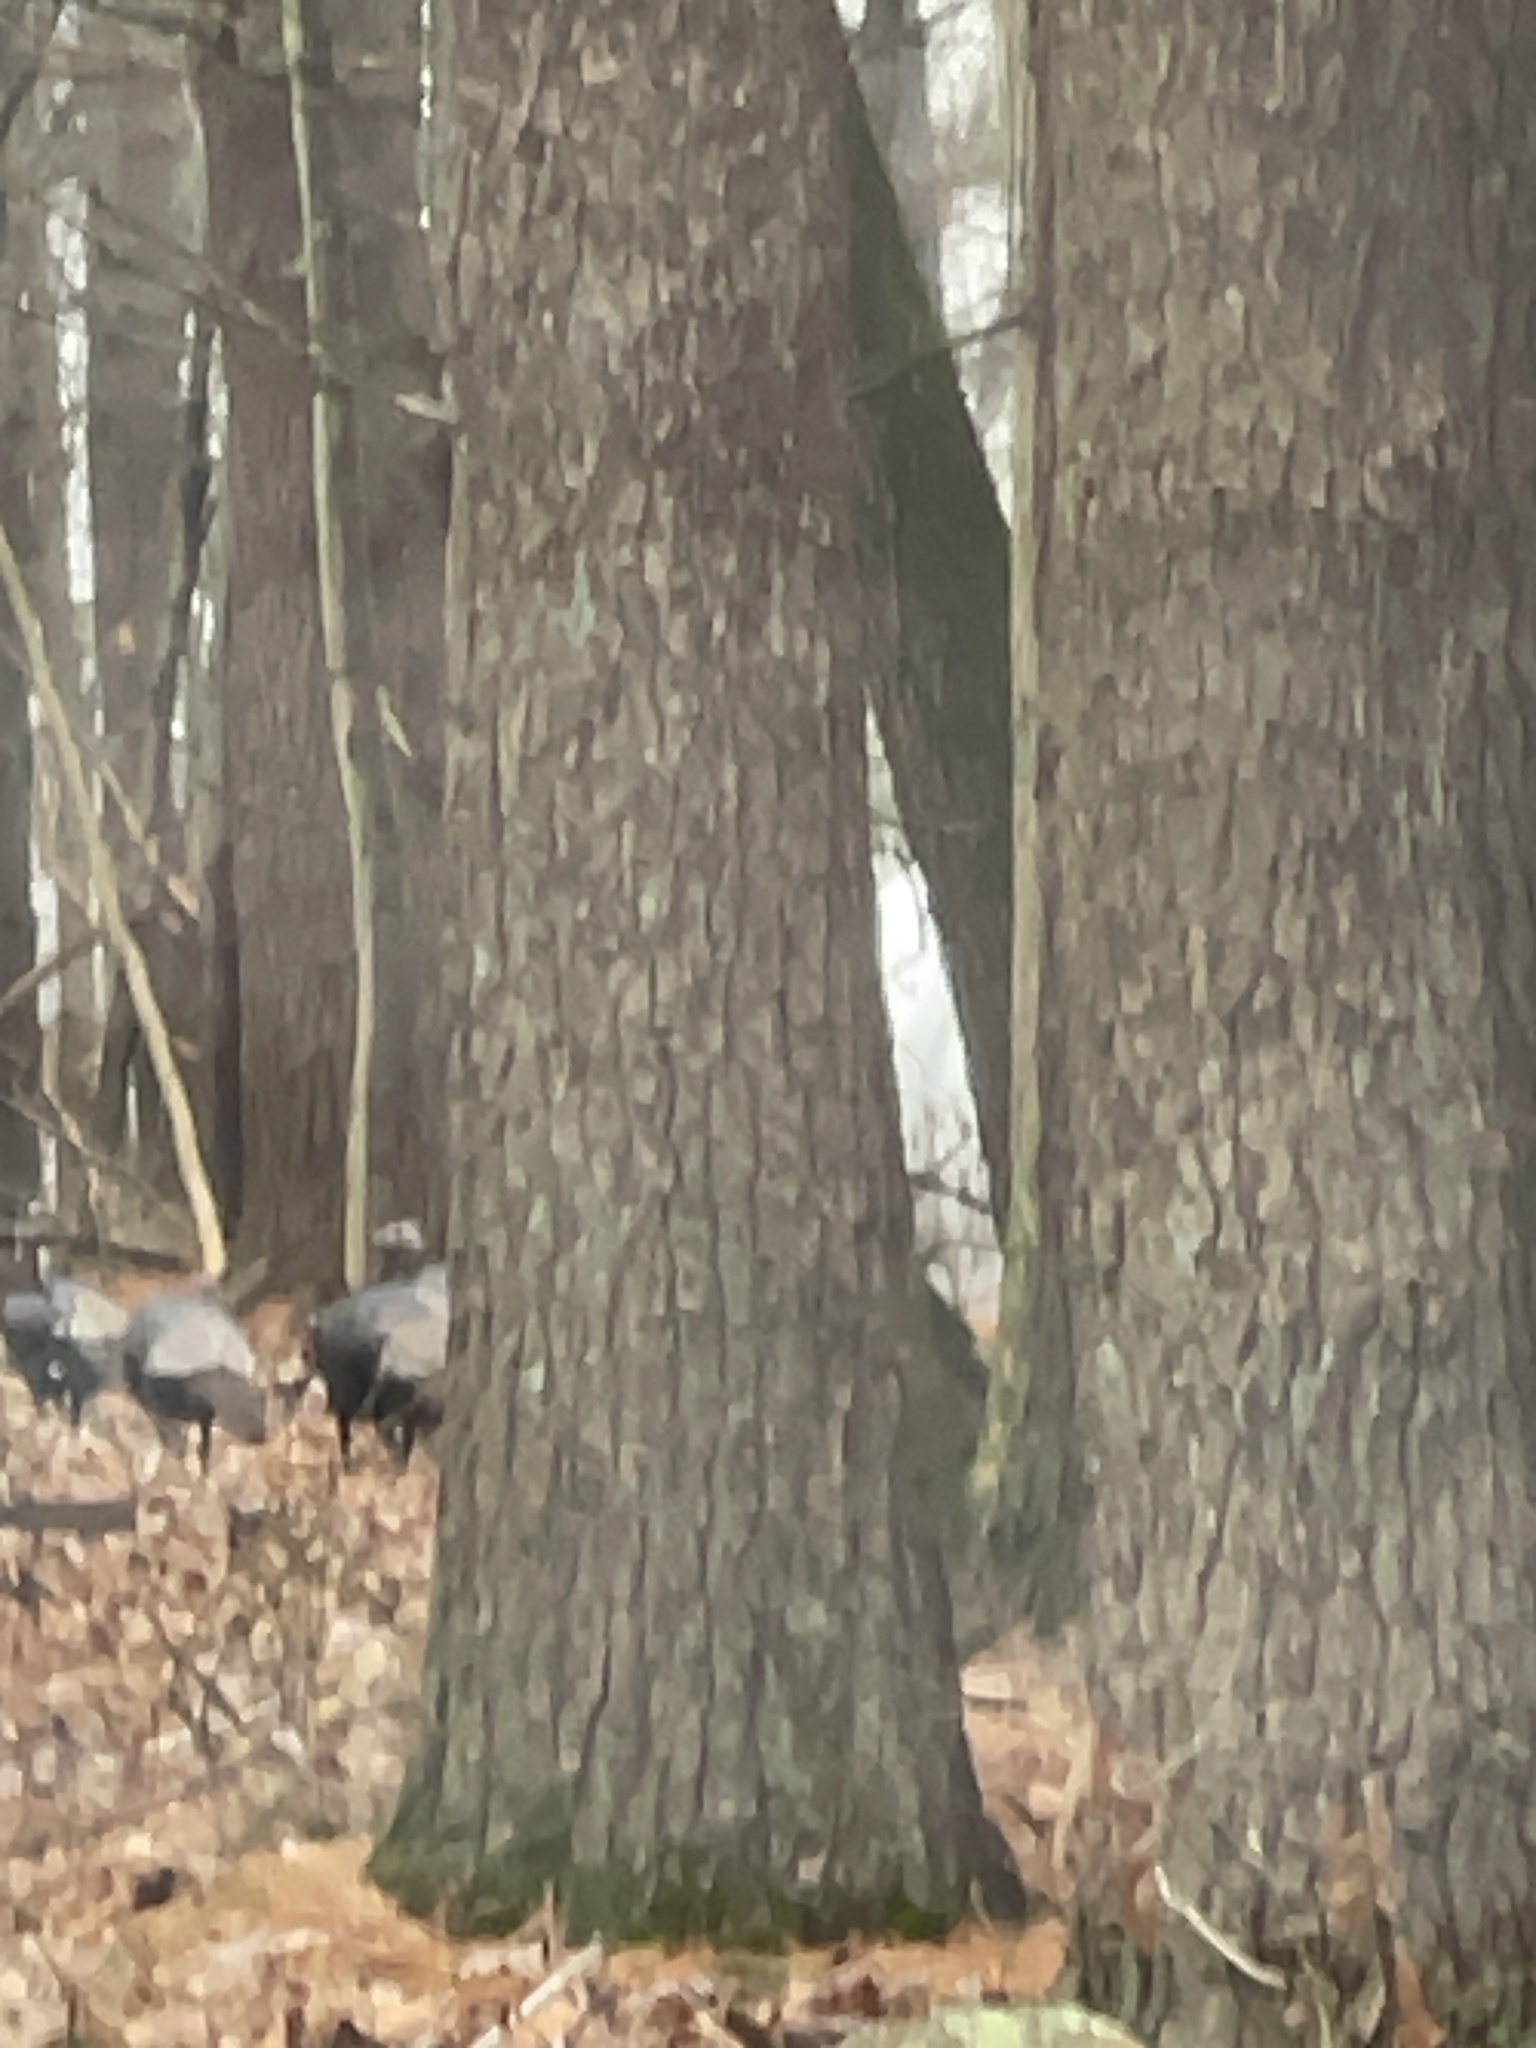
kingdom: Animalia
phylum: Chordata
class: Aves
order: Galliformes
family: Phasianidae
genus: Meleagris
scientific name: Meleagris gallopavo
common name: Wild turkey
